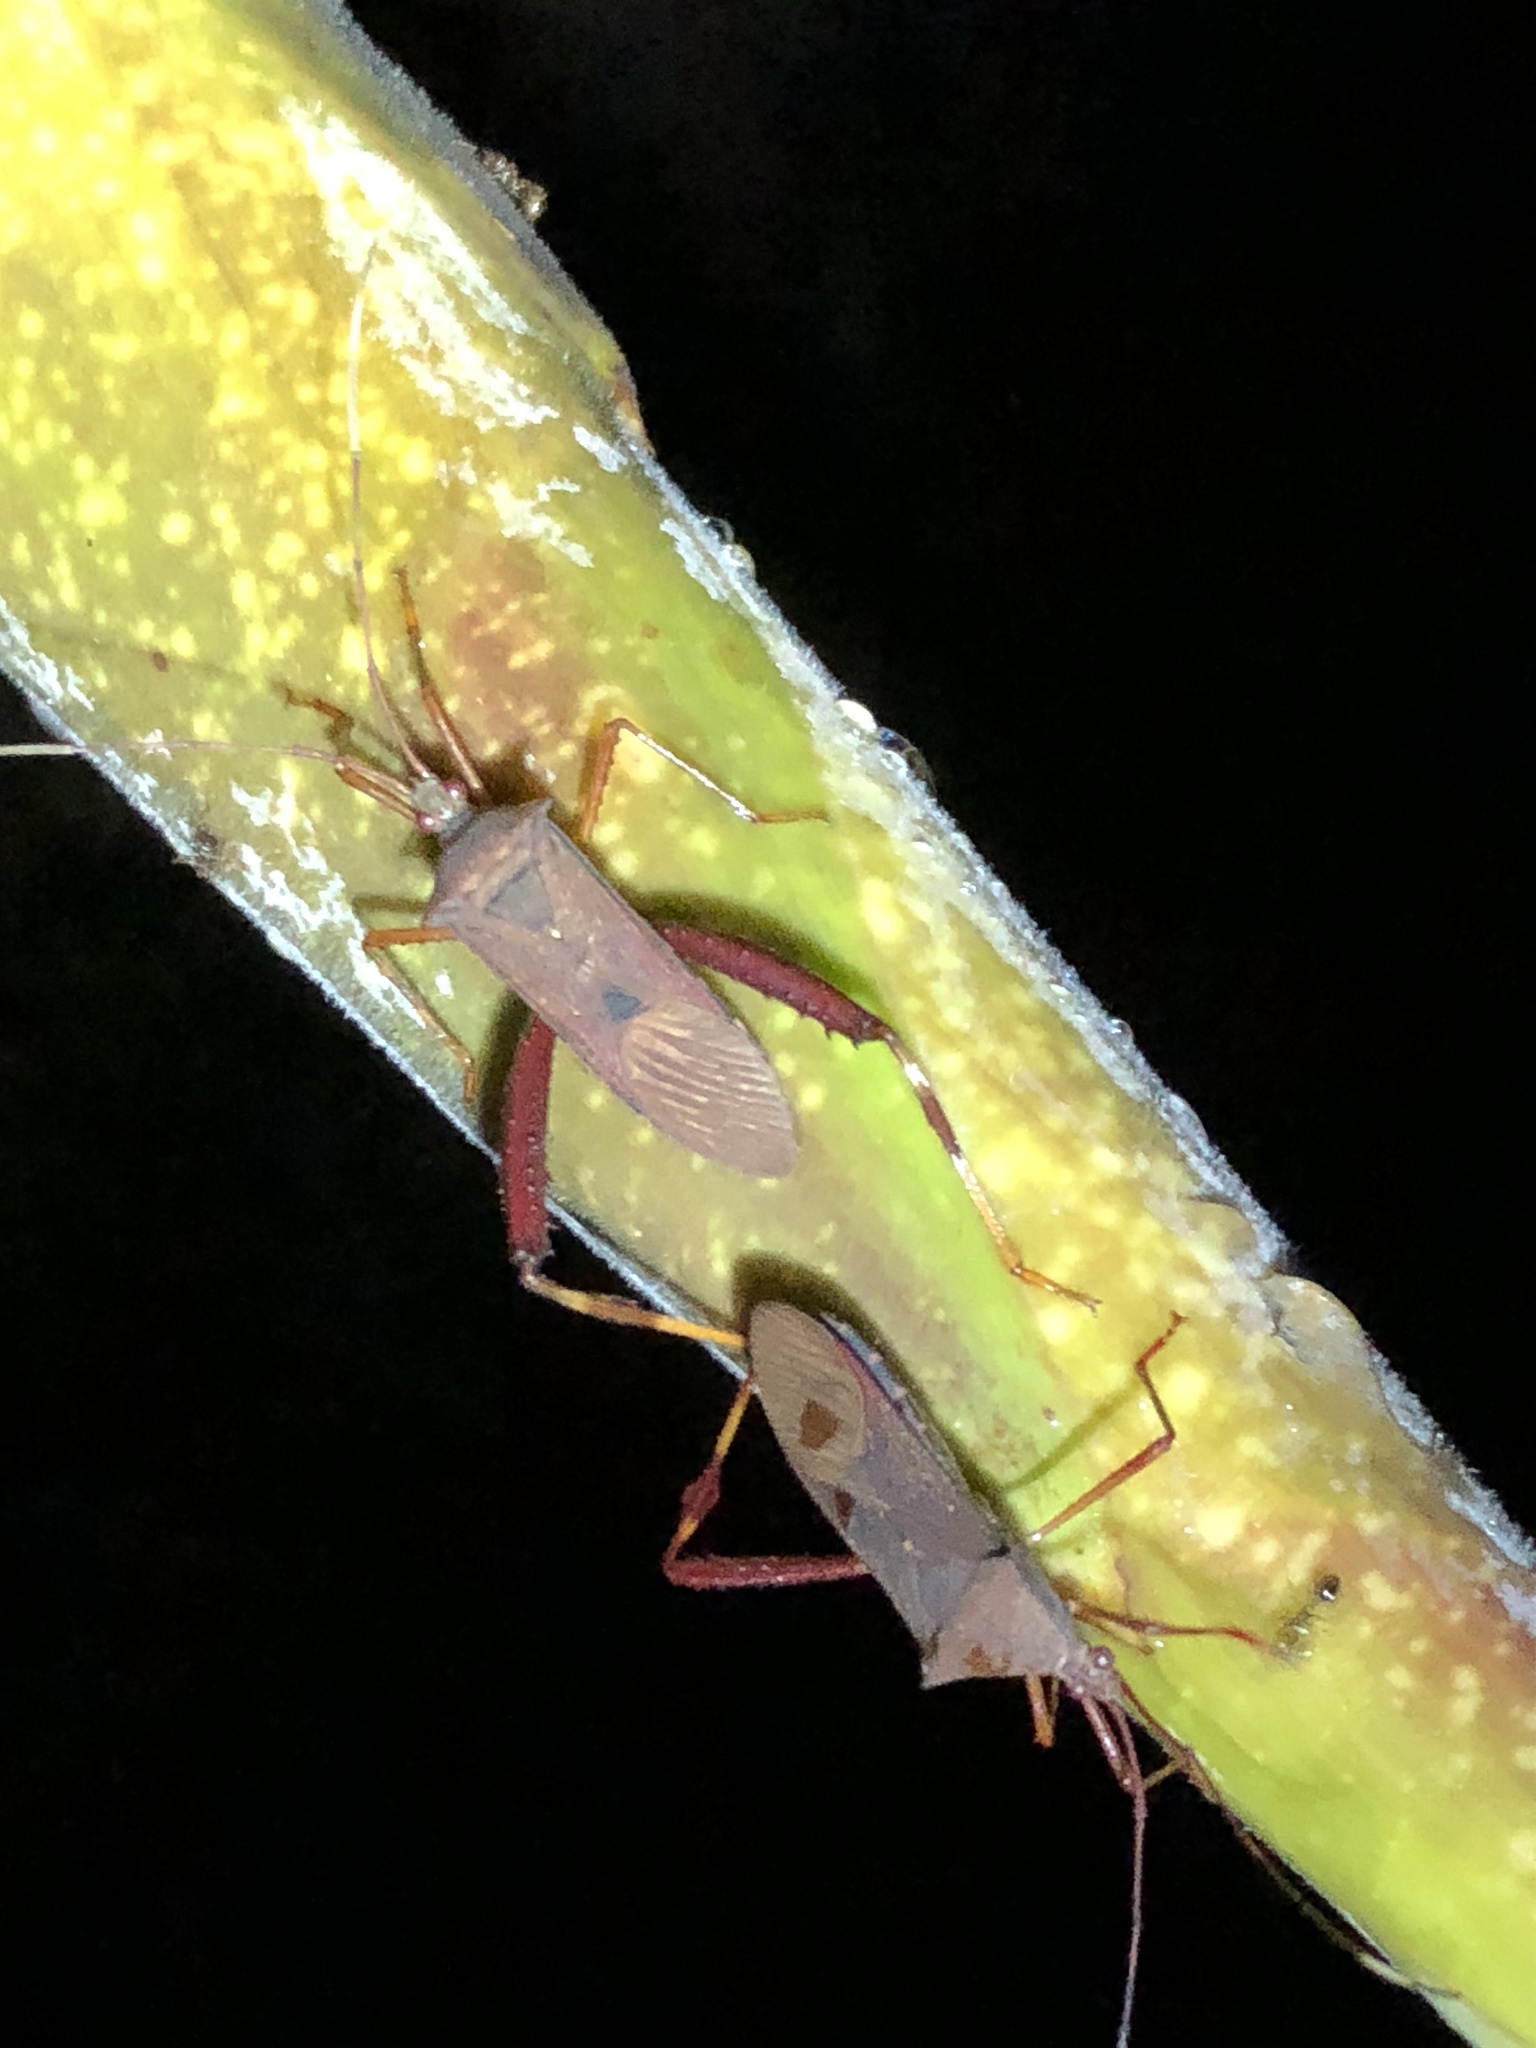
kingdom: Animalia
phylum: Arthropoda
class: Insecta
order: Hemiptera
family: Coreidae
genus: Zygometapodus
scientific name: Zygometapodus castaneus
